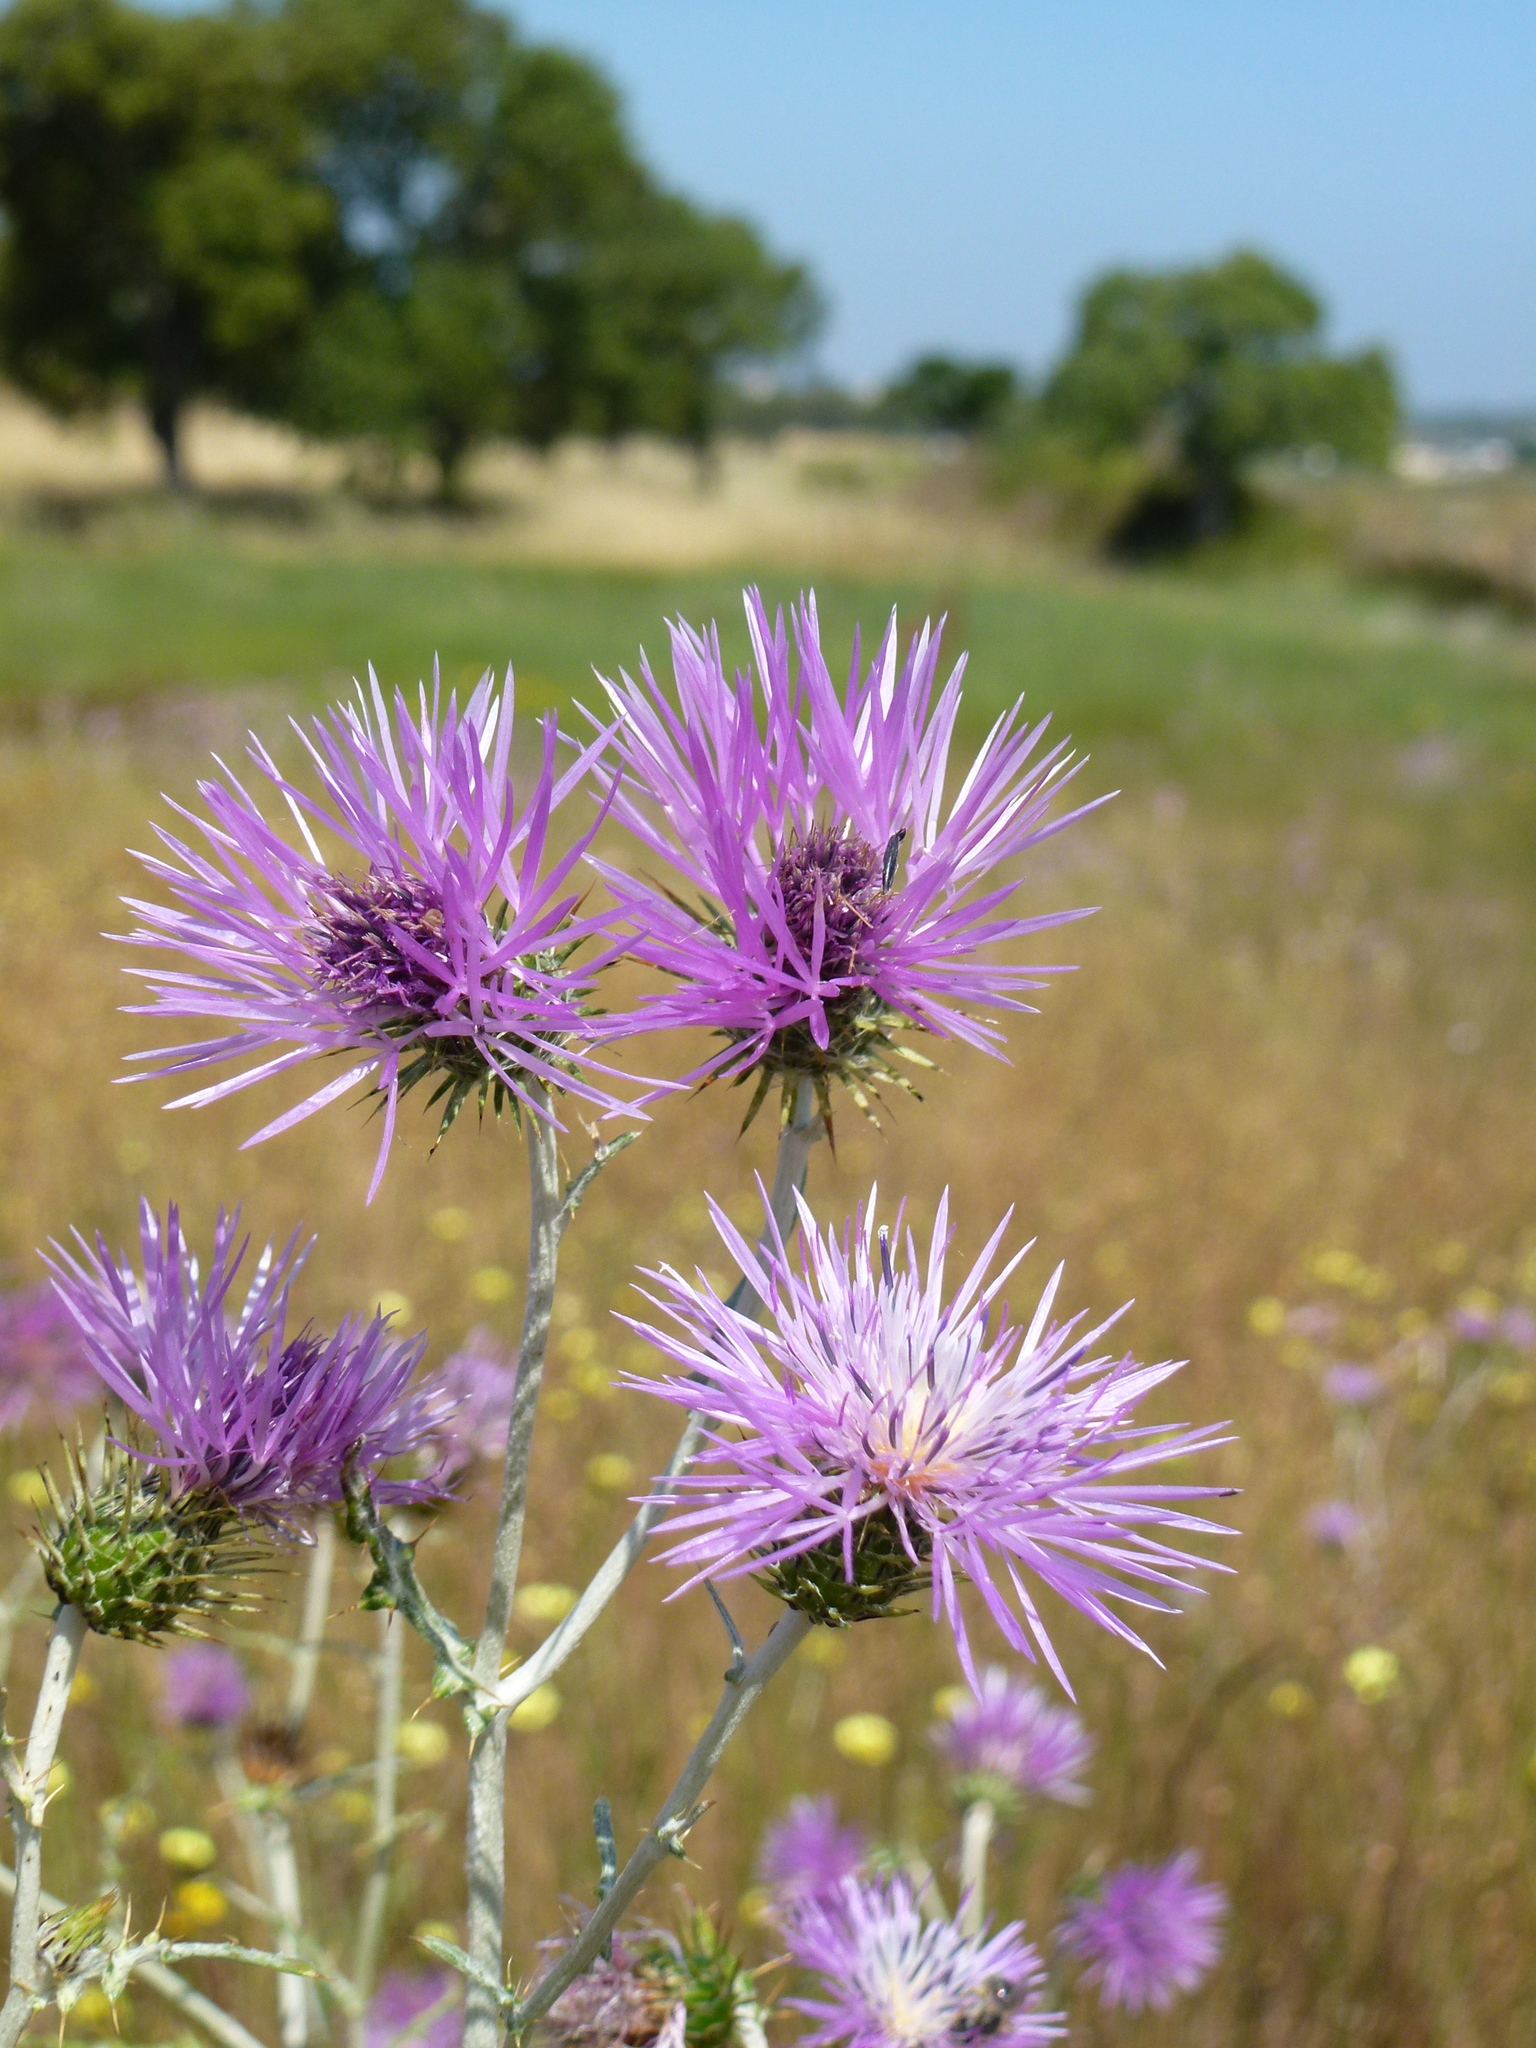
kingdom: Plantae
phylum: Tracheophyta
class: Magnoliopsida
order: Asterales
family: Asteraceae
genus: Galactites
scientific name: Galactites tomentosa
